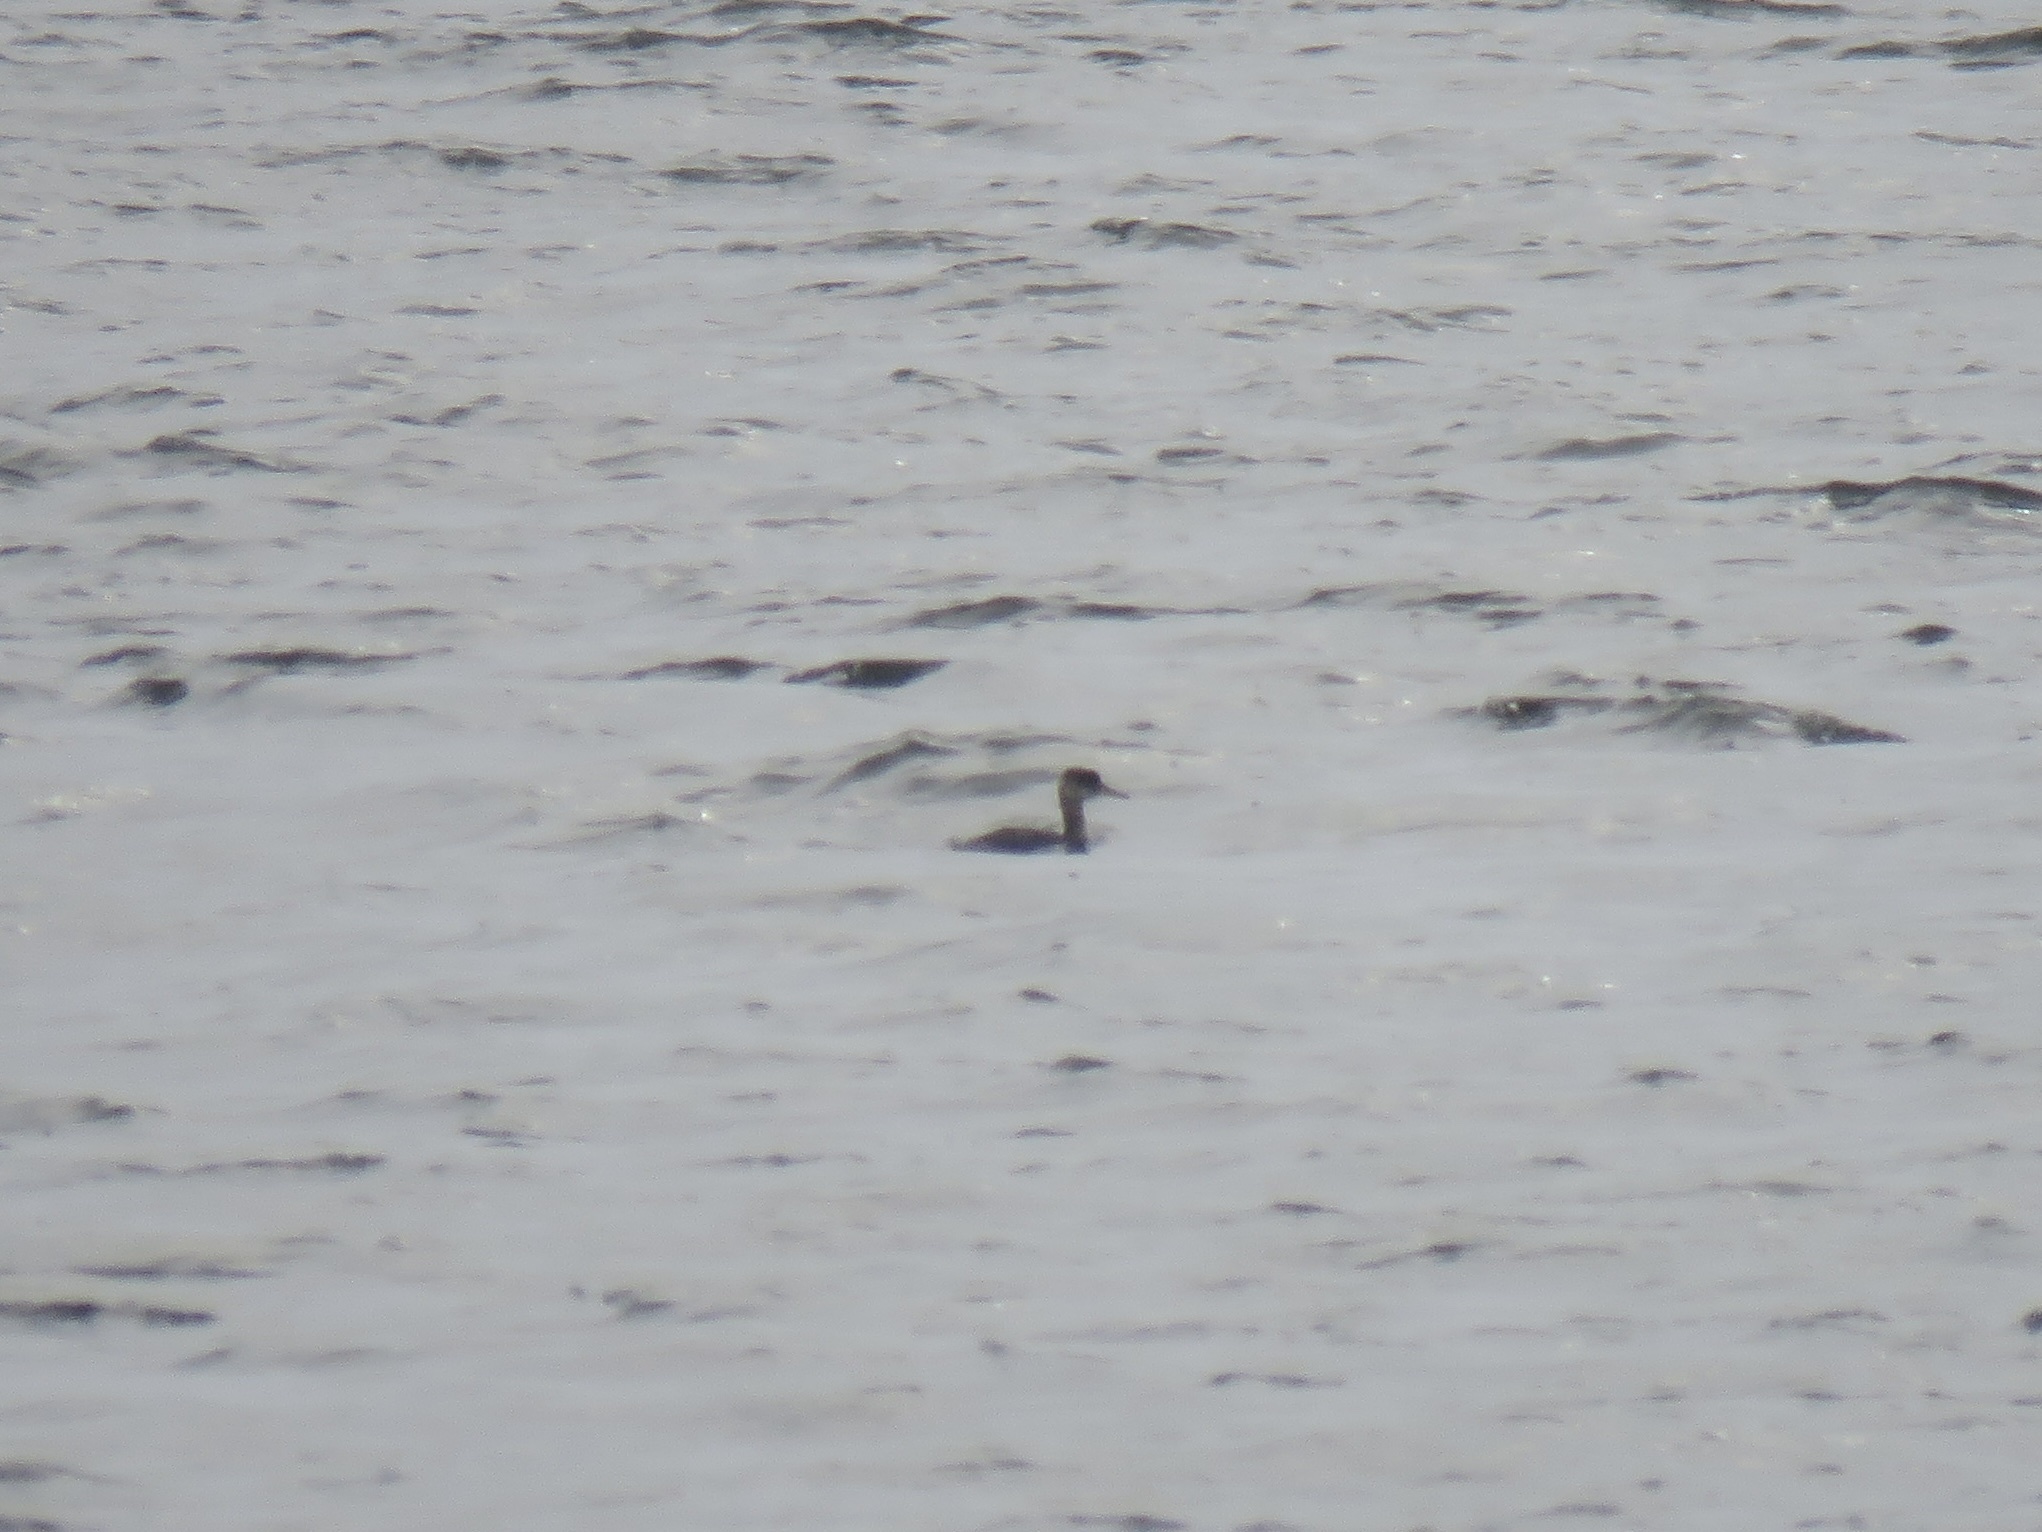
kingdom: Animalia
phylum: Chordata
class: Aves
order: Podicipediformes
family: Podicipedidae
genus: Podiceps
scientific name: Podiceps grisegena
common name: Red-necked grebe
